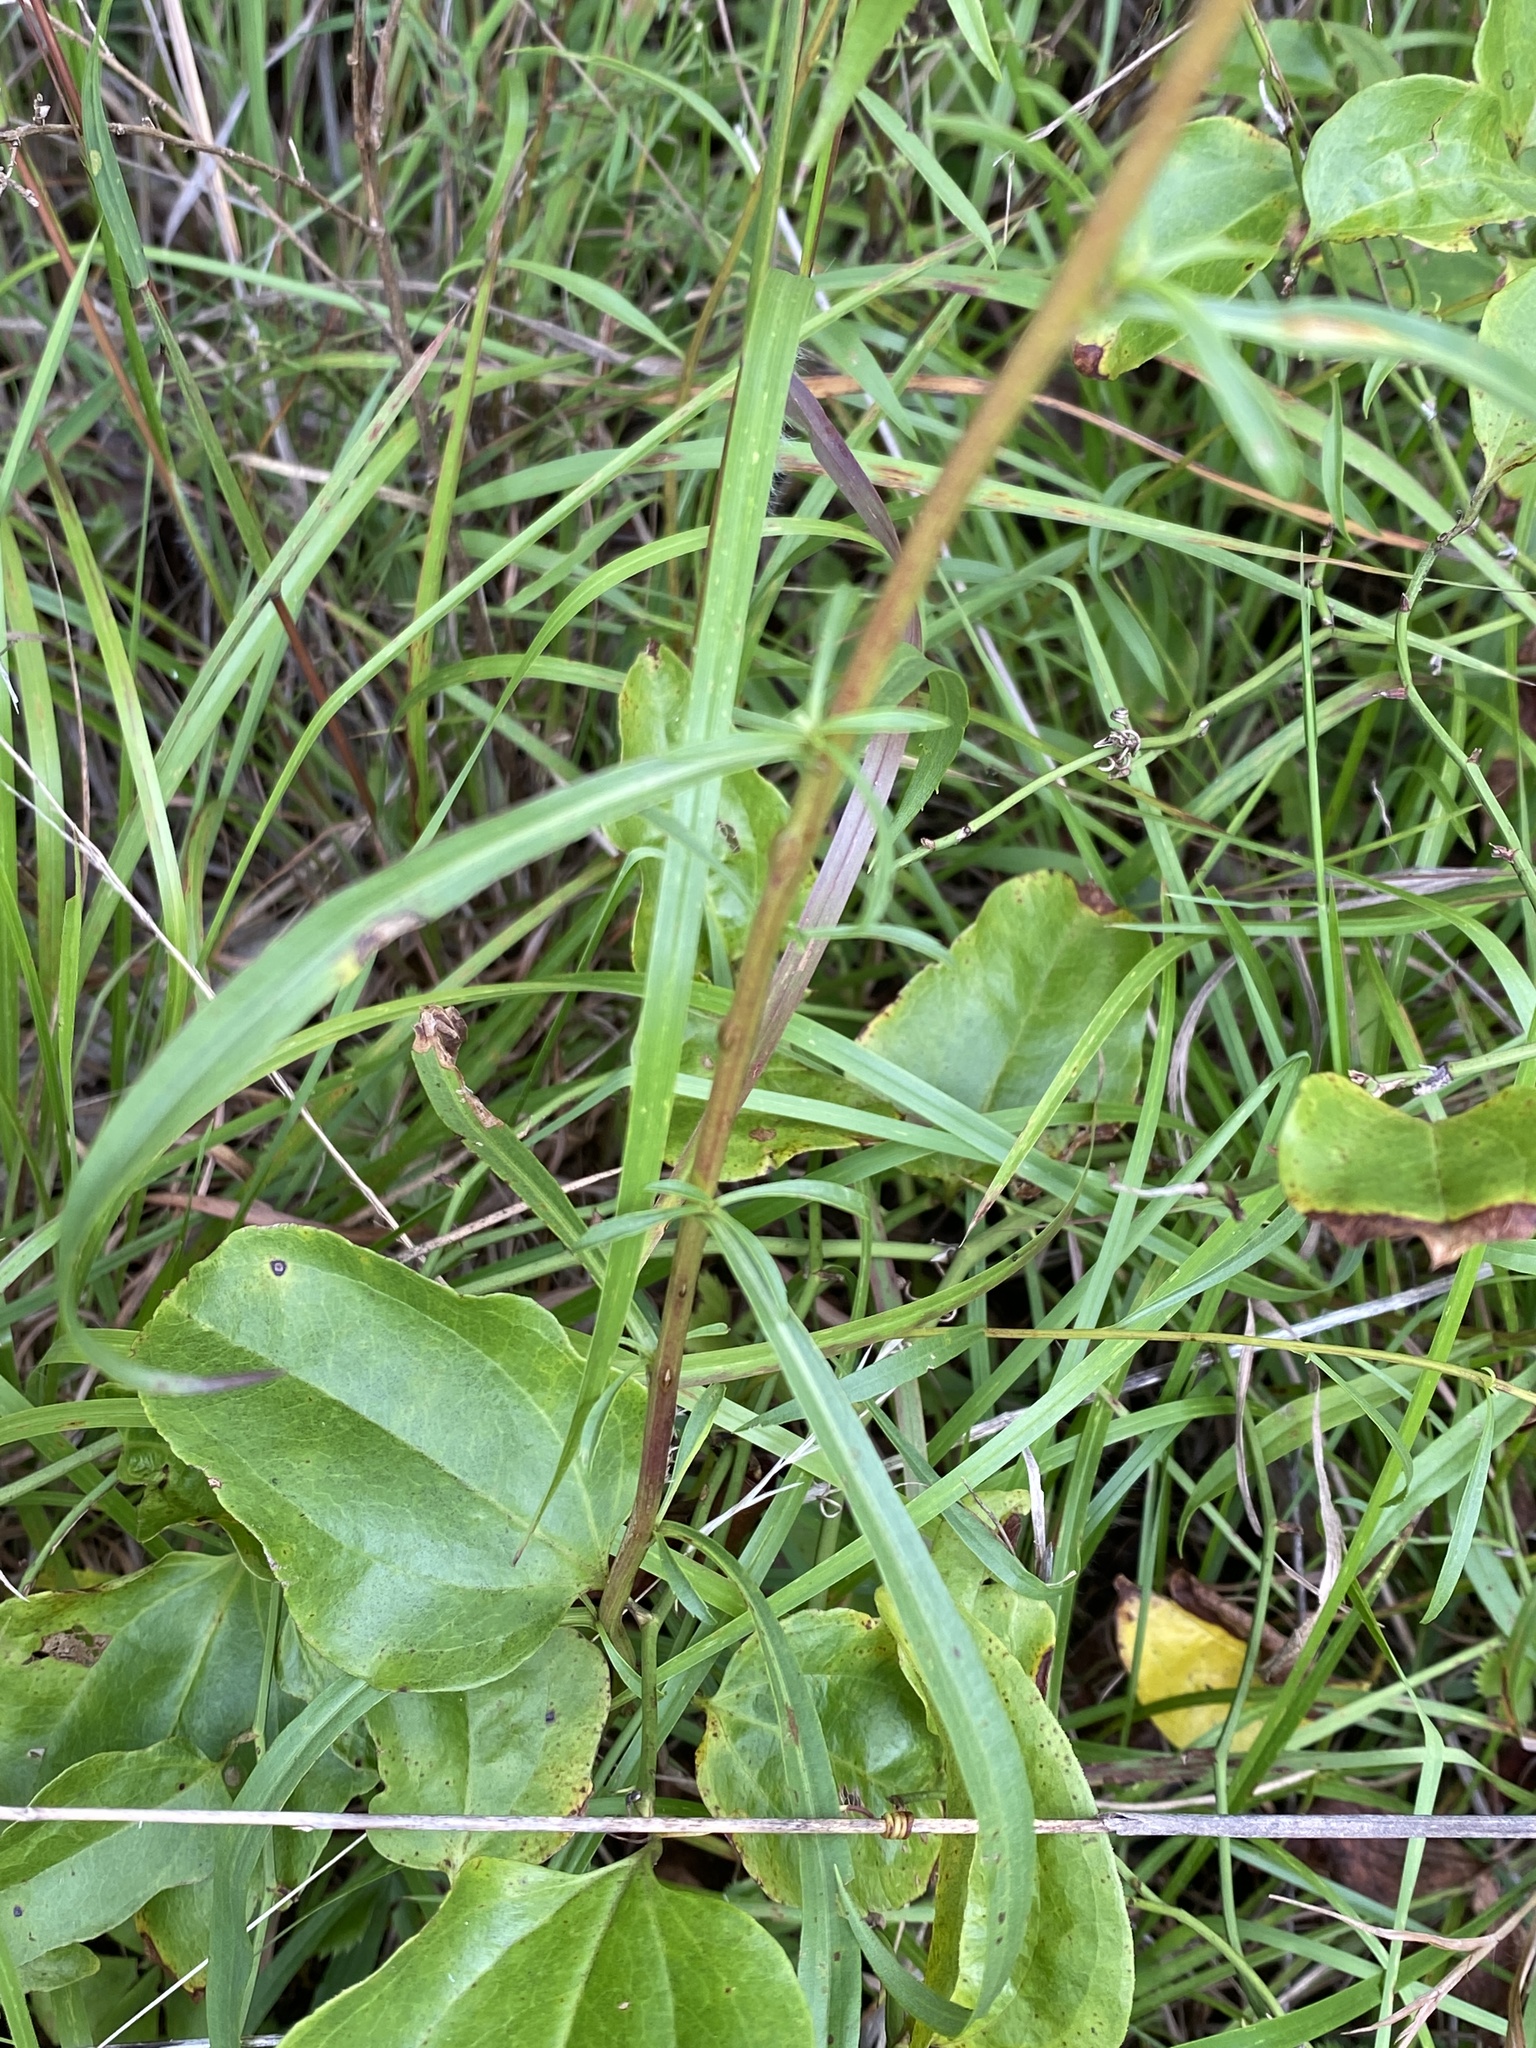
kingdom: Plantae
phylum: Tracheophyta
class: Magnoliopsida
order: Asterales
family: Asteraceae
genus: Solidago
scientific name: Solidago pinetorum
